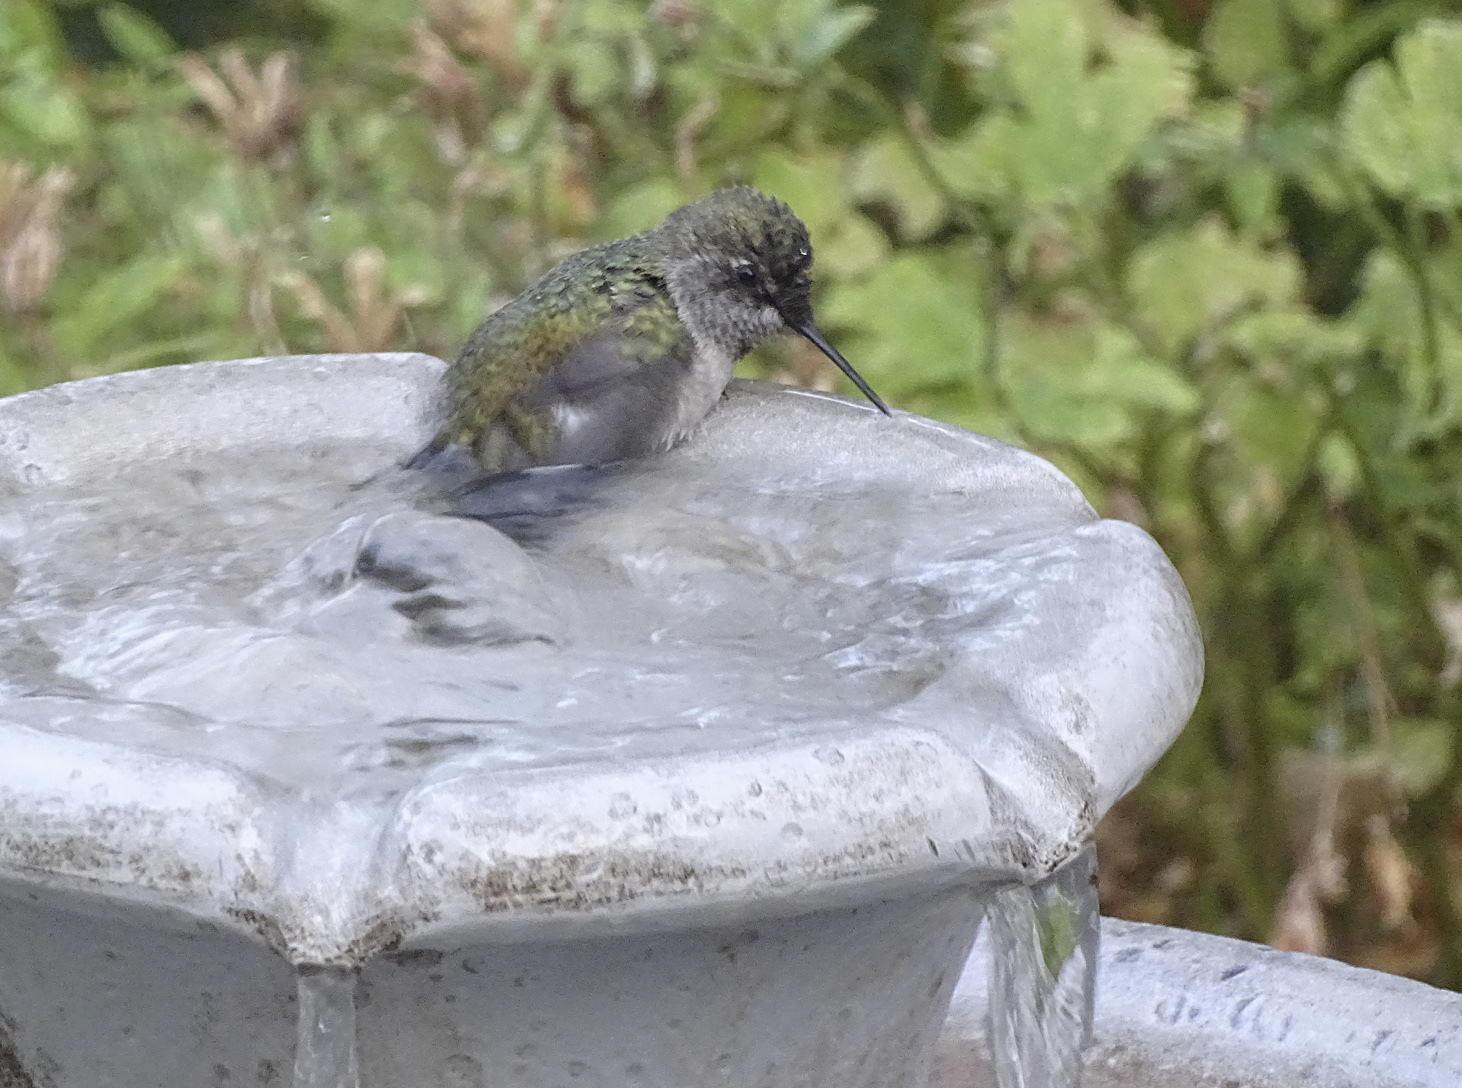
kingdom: Animalia
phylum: Chordata
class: Aves
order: Apodiformes
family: Trochilidae
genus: Calypte
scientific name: Calypte anna
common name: Anna's hummingbird
